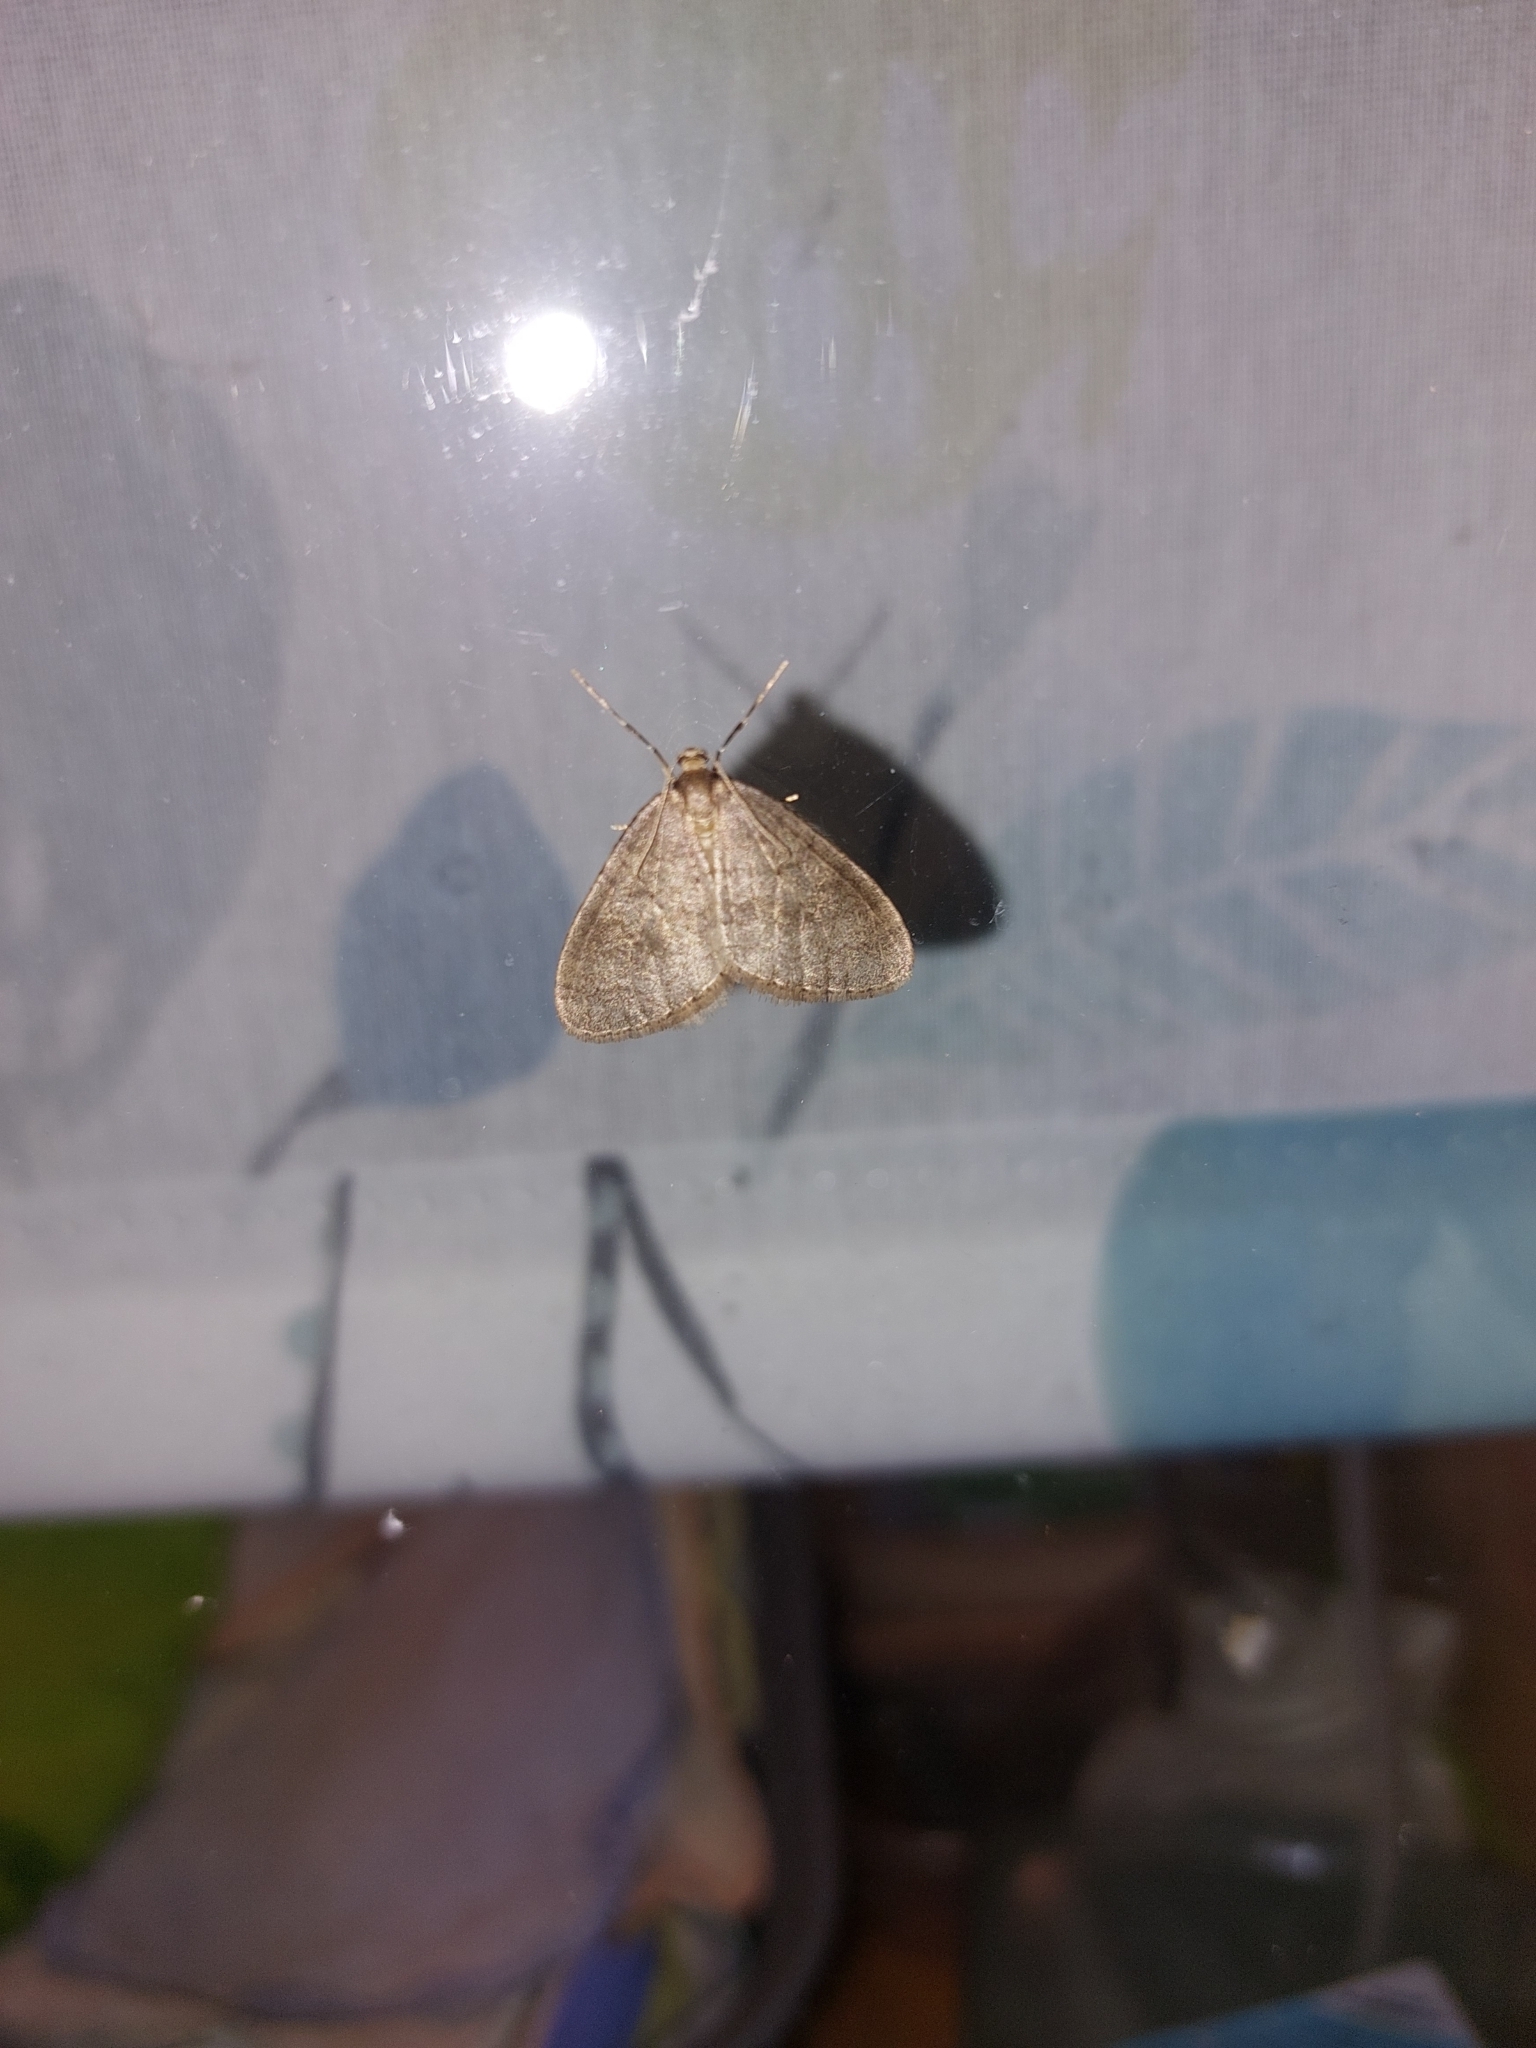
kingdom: Animalia
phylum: Arthropoda
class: Insecta
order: Lepidoptera
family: Geometridae
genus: Operophtera
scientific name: Operophtera brumata
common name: Winter moth
